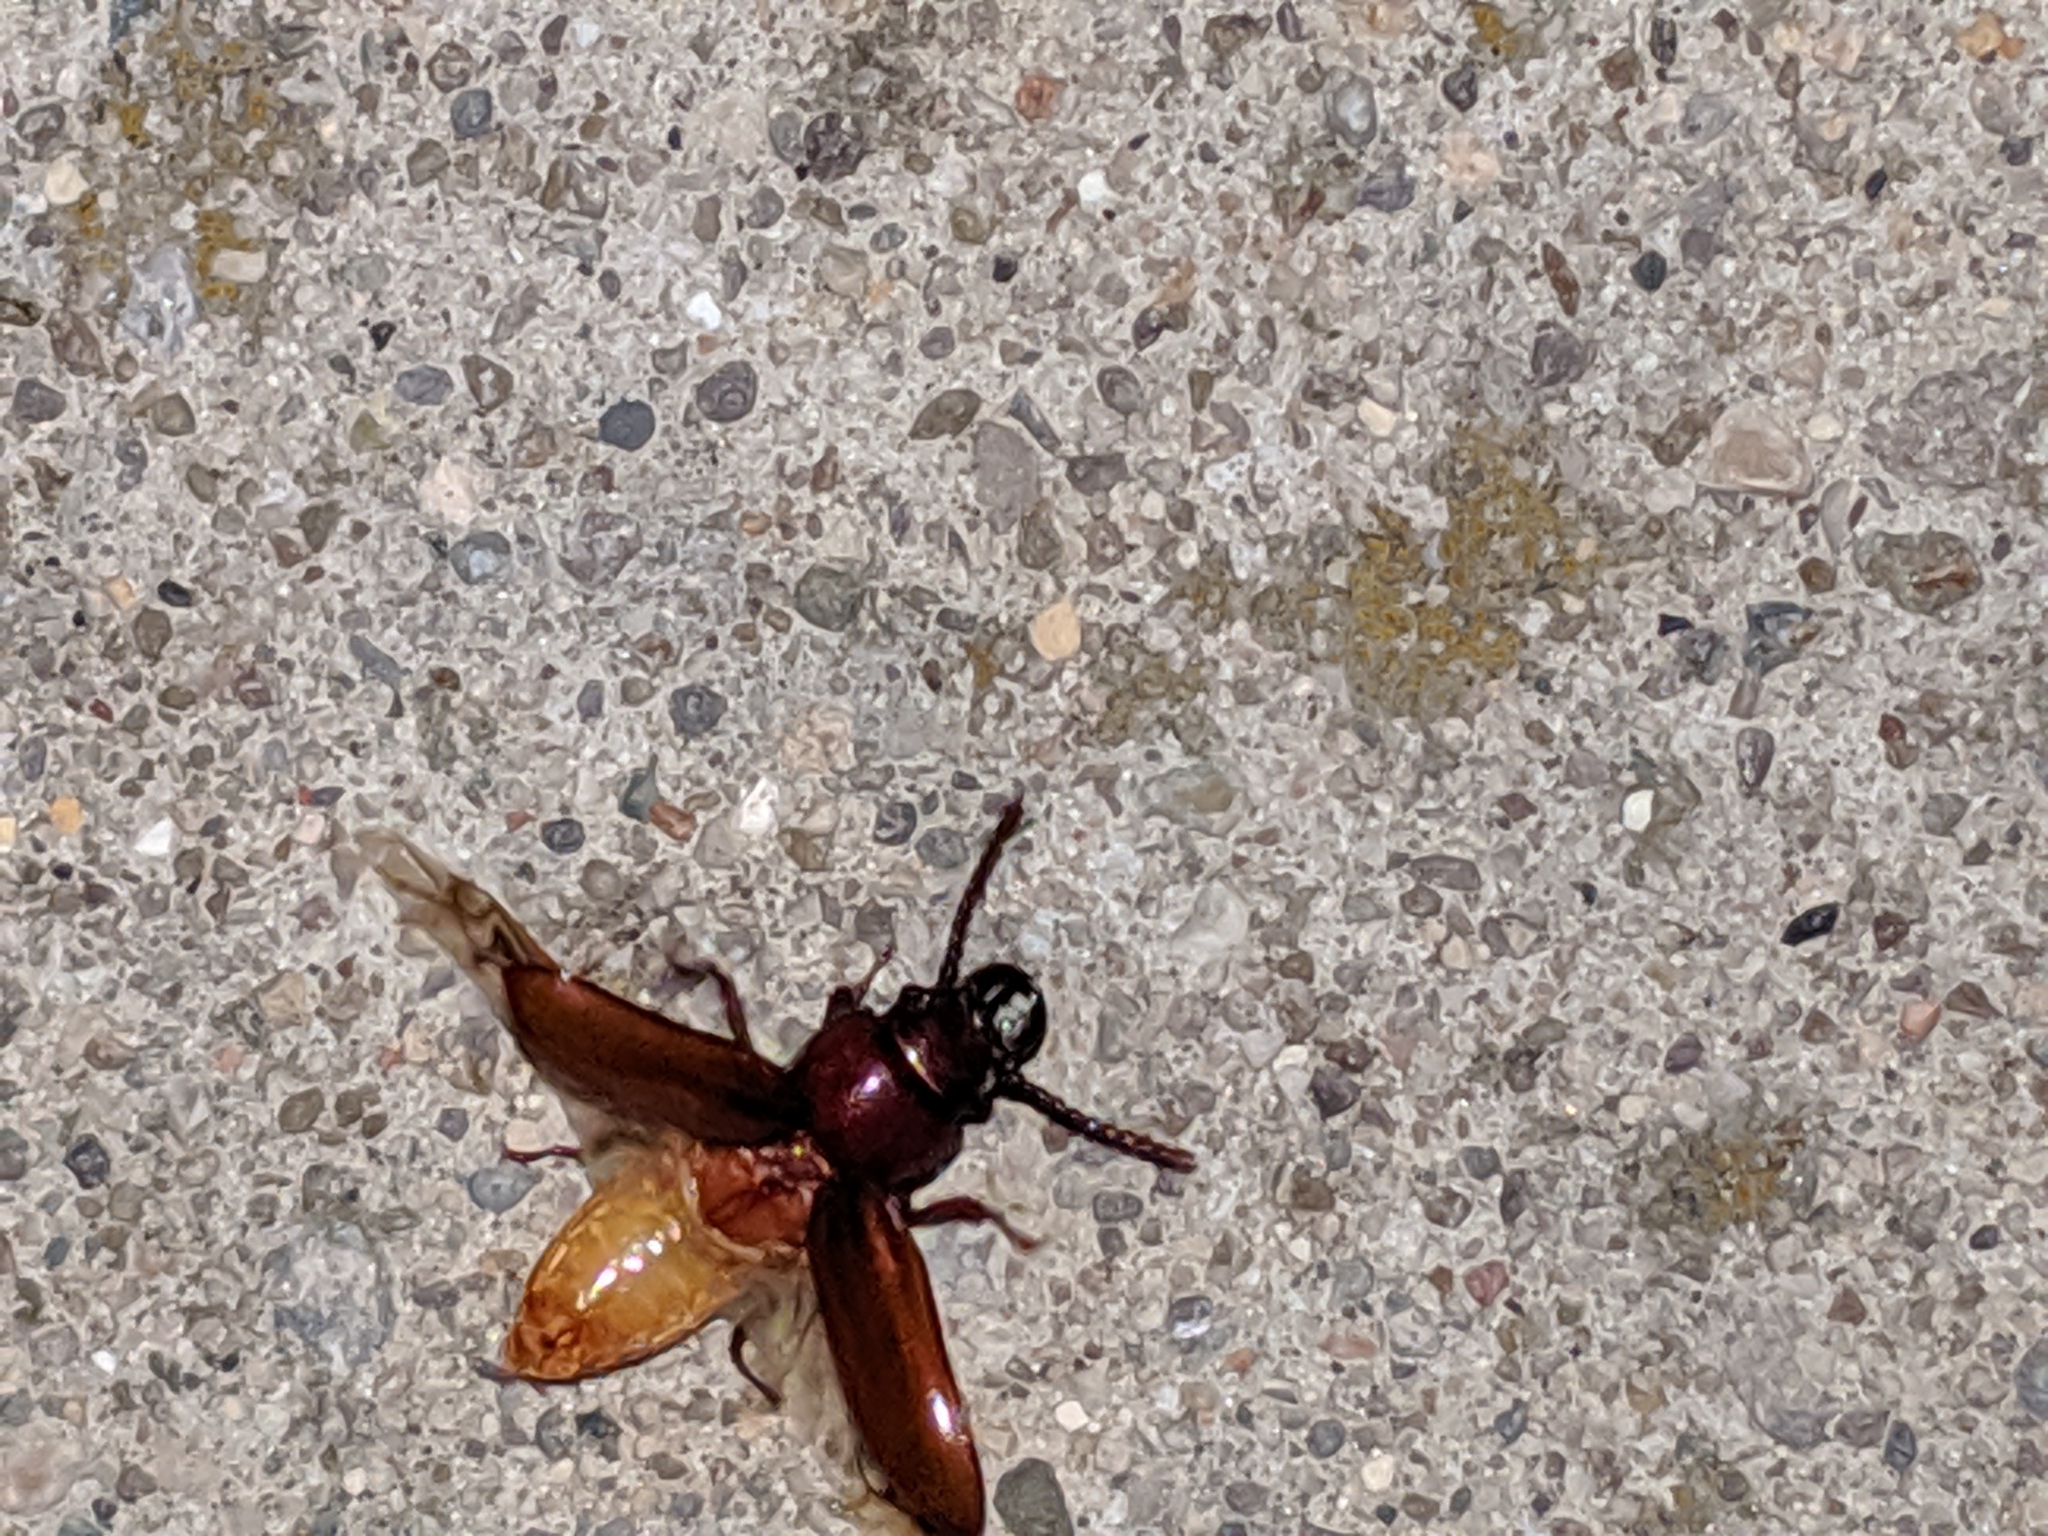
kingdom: Animalia
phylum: Arthropoda
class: Insecta
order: Coleoptera
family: Cerambycidae
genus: Neandra
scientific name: Neandra brunnea
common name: Pole borer
